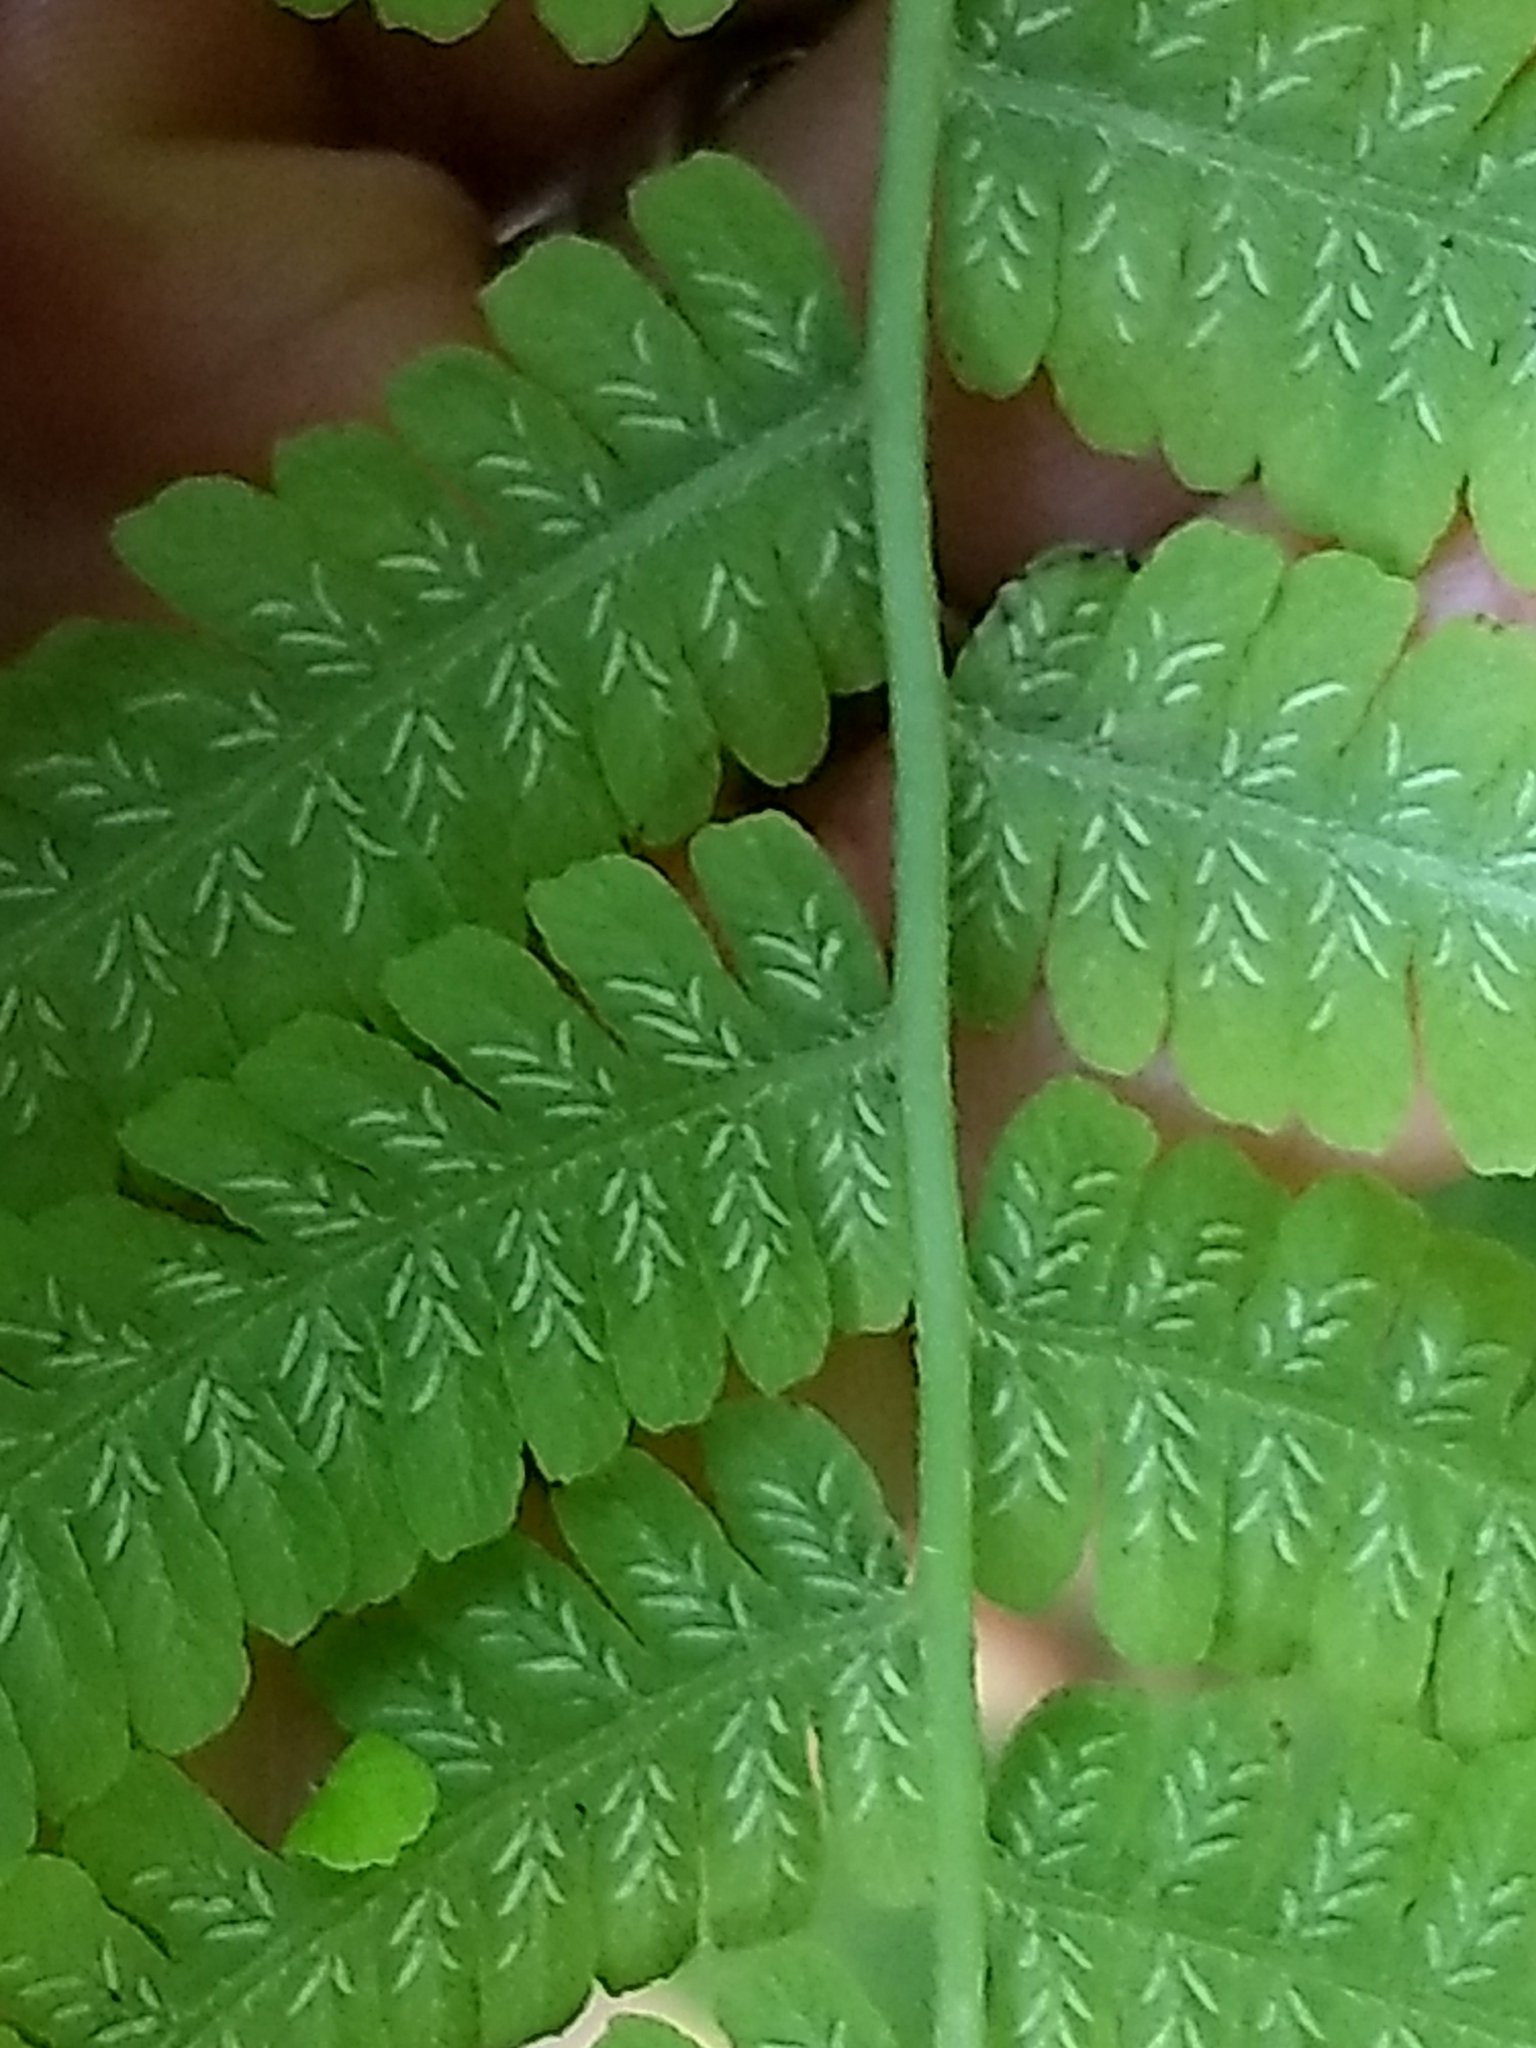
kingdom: Plantae
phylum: Tracheophyta
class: Polypodiopsida
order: Polypodiales
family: Athyriaceae
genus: Deparia
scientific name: Deparia acrostichoides
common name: Silver false spleenwort
